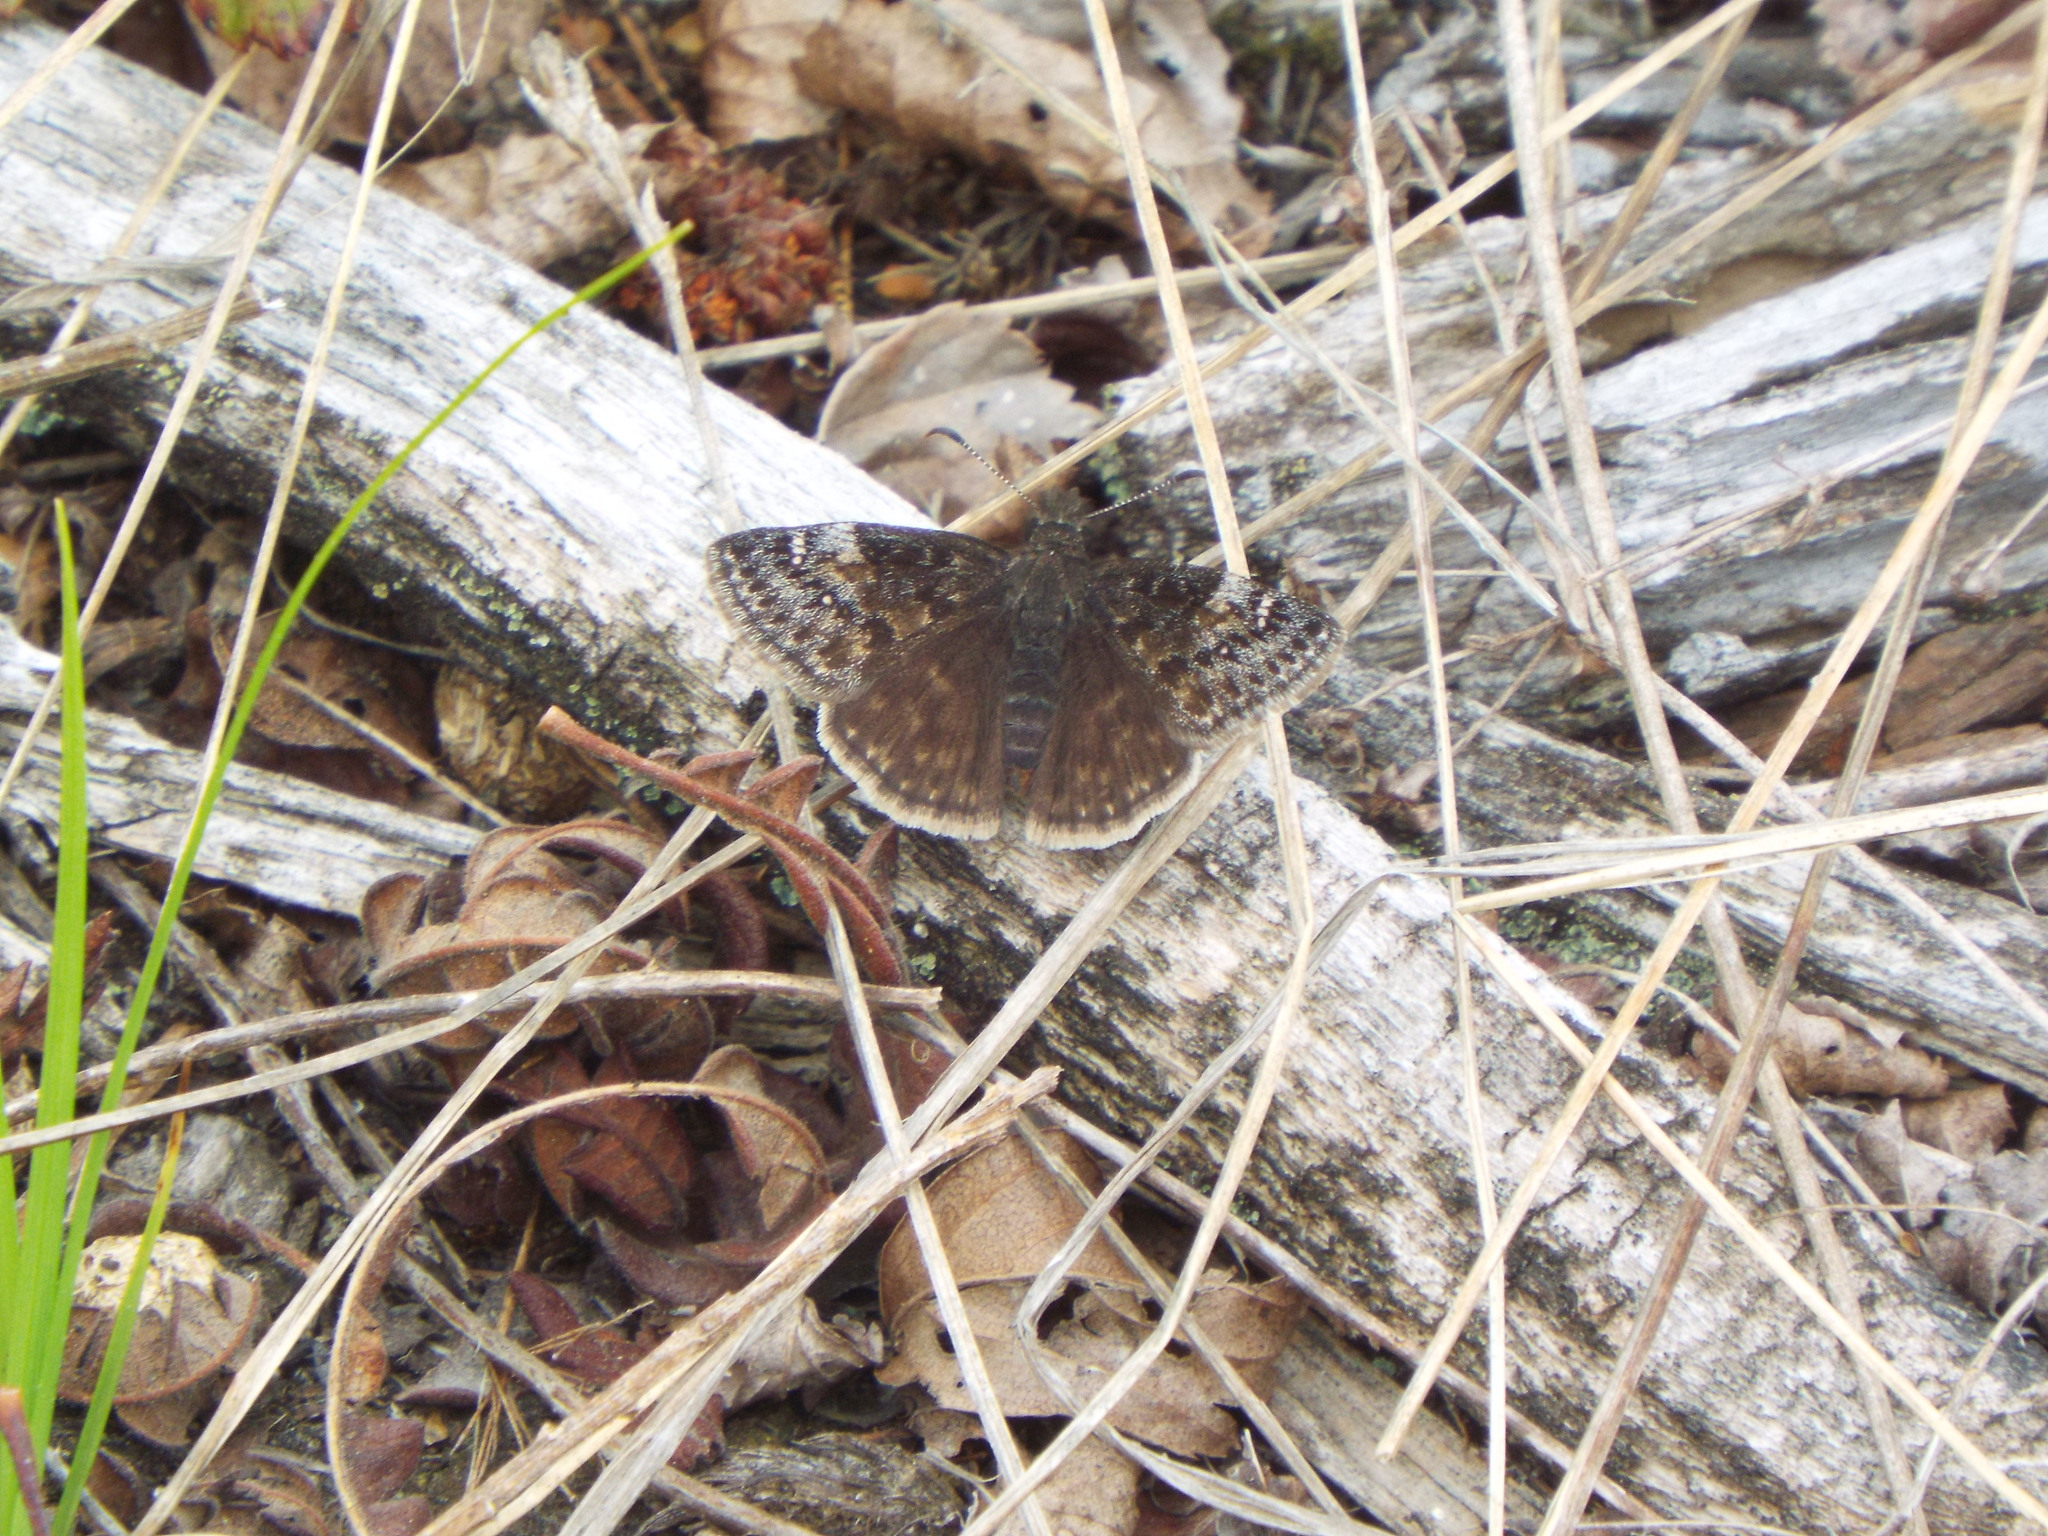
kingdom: Animalia
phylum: Arthropoda
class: Insecta
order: Lepidoptera
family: Hesperiidae
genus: Erynnis
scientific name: Erynnis baptisiae
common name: Wild indigo duskywing
